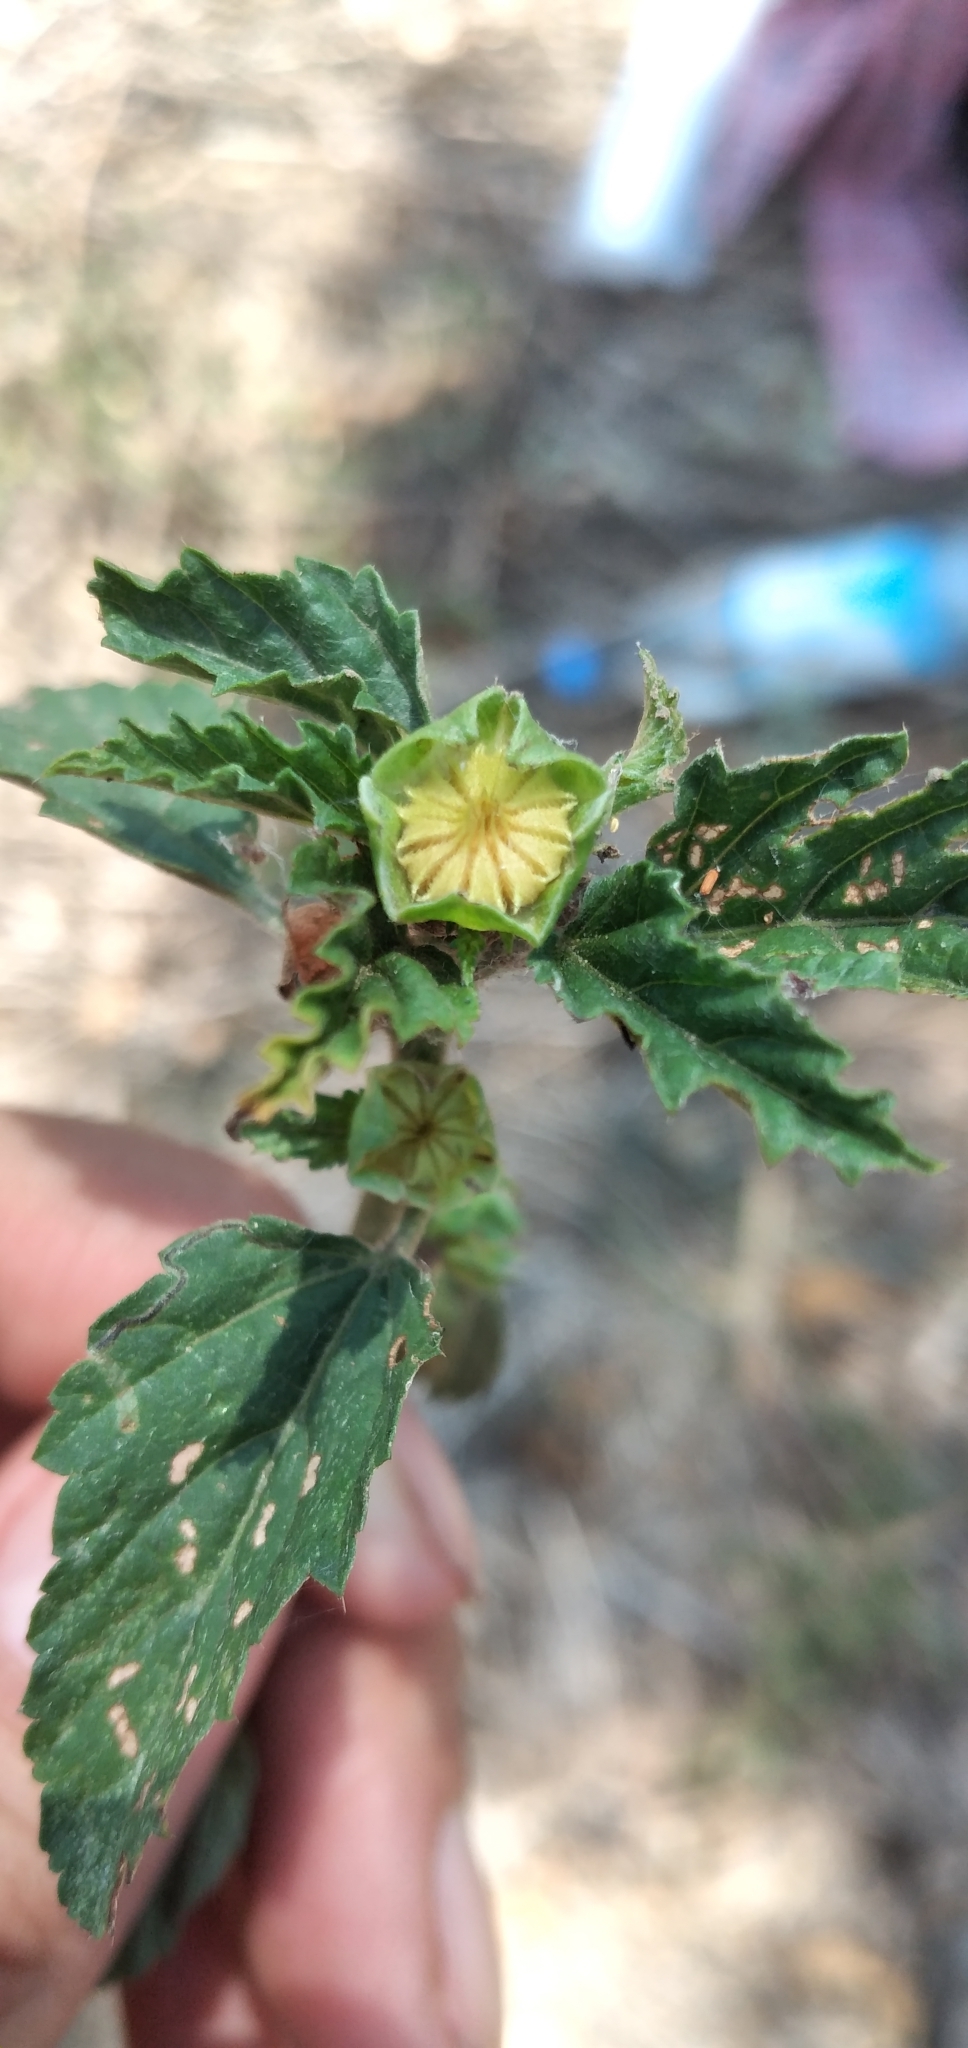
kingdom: Plantae
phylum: Tracheophyta
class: Magnoliopsida
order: Malvales
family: Malvaceae
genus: Malvastrum
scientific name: Malvastrum coromandelianum
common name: Threelobe false mallow
